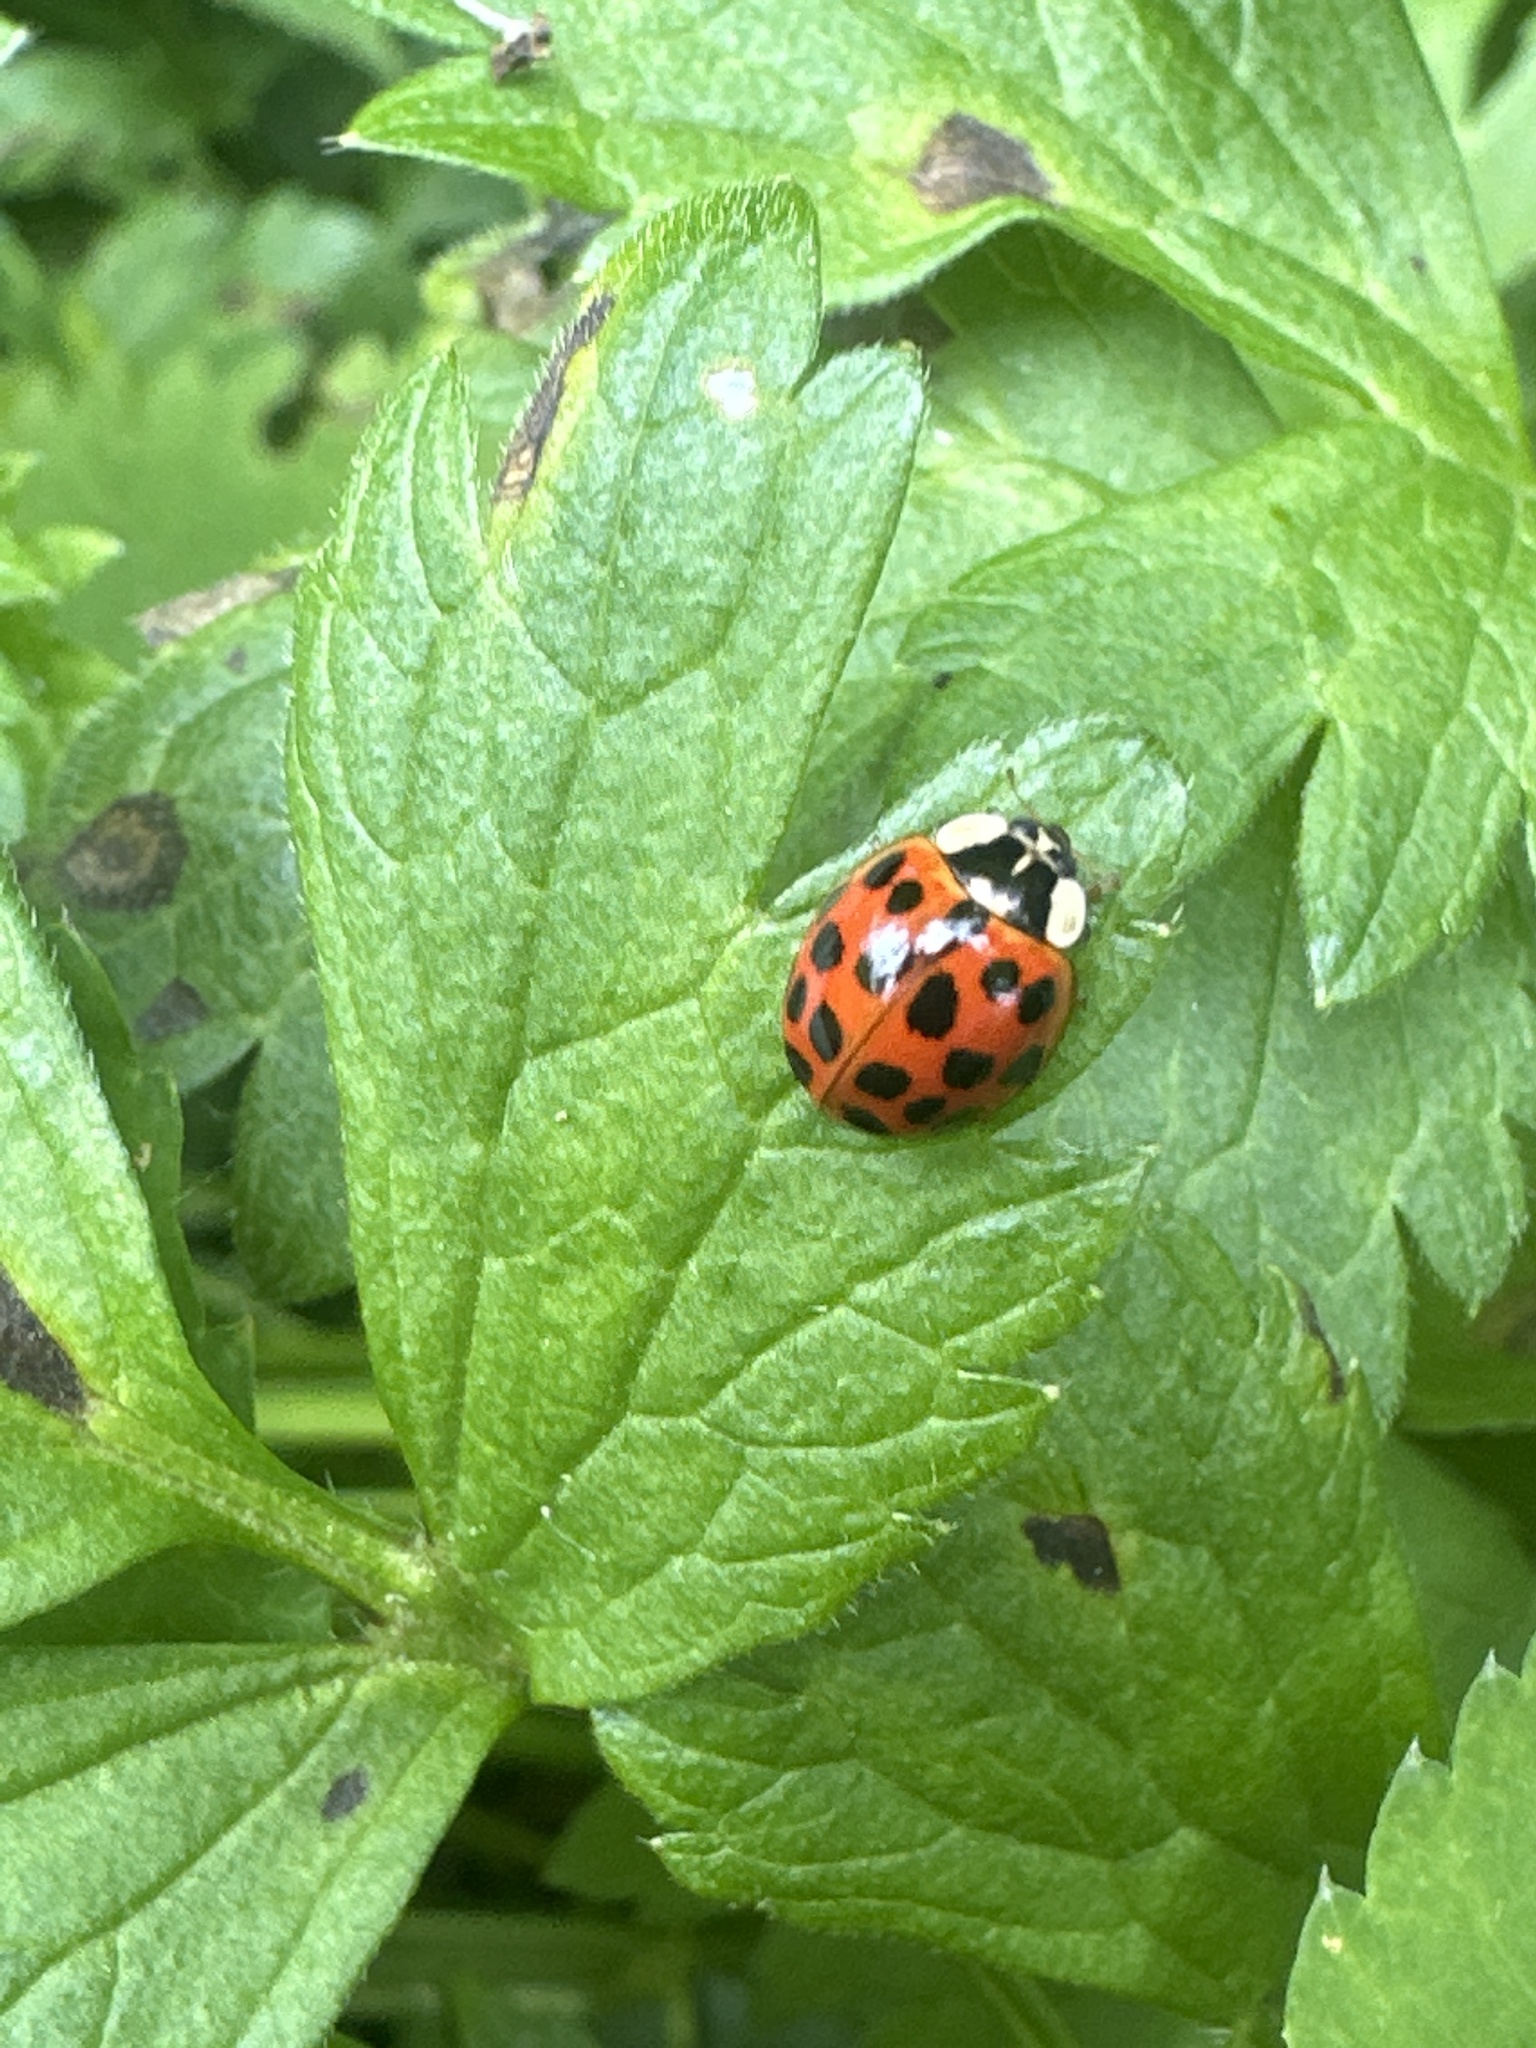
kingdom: Animalia
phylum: Arthropoda
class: Insecta
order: Coleoptera
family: Coccinellidae
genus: Harmonia
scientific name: Harmonia axyridis
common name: Harlequin ladybird
